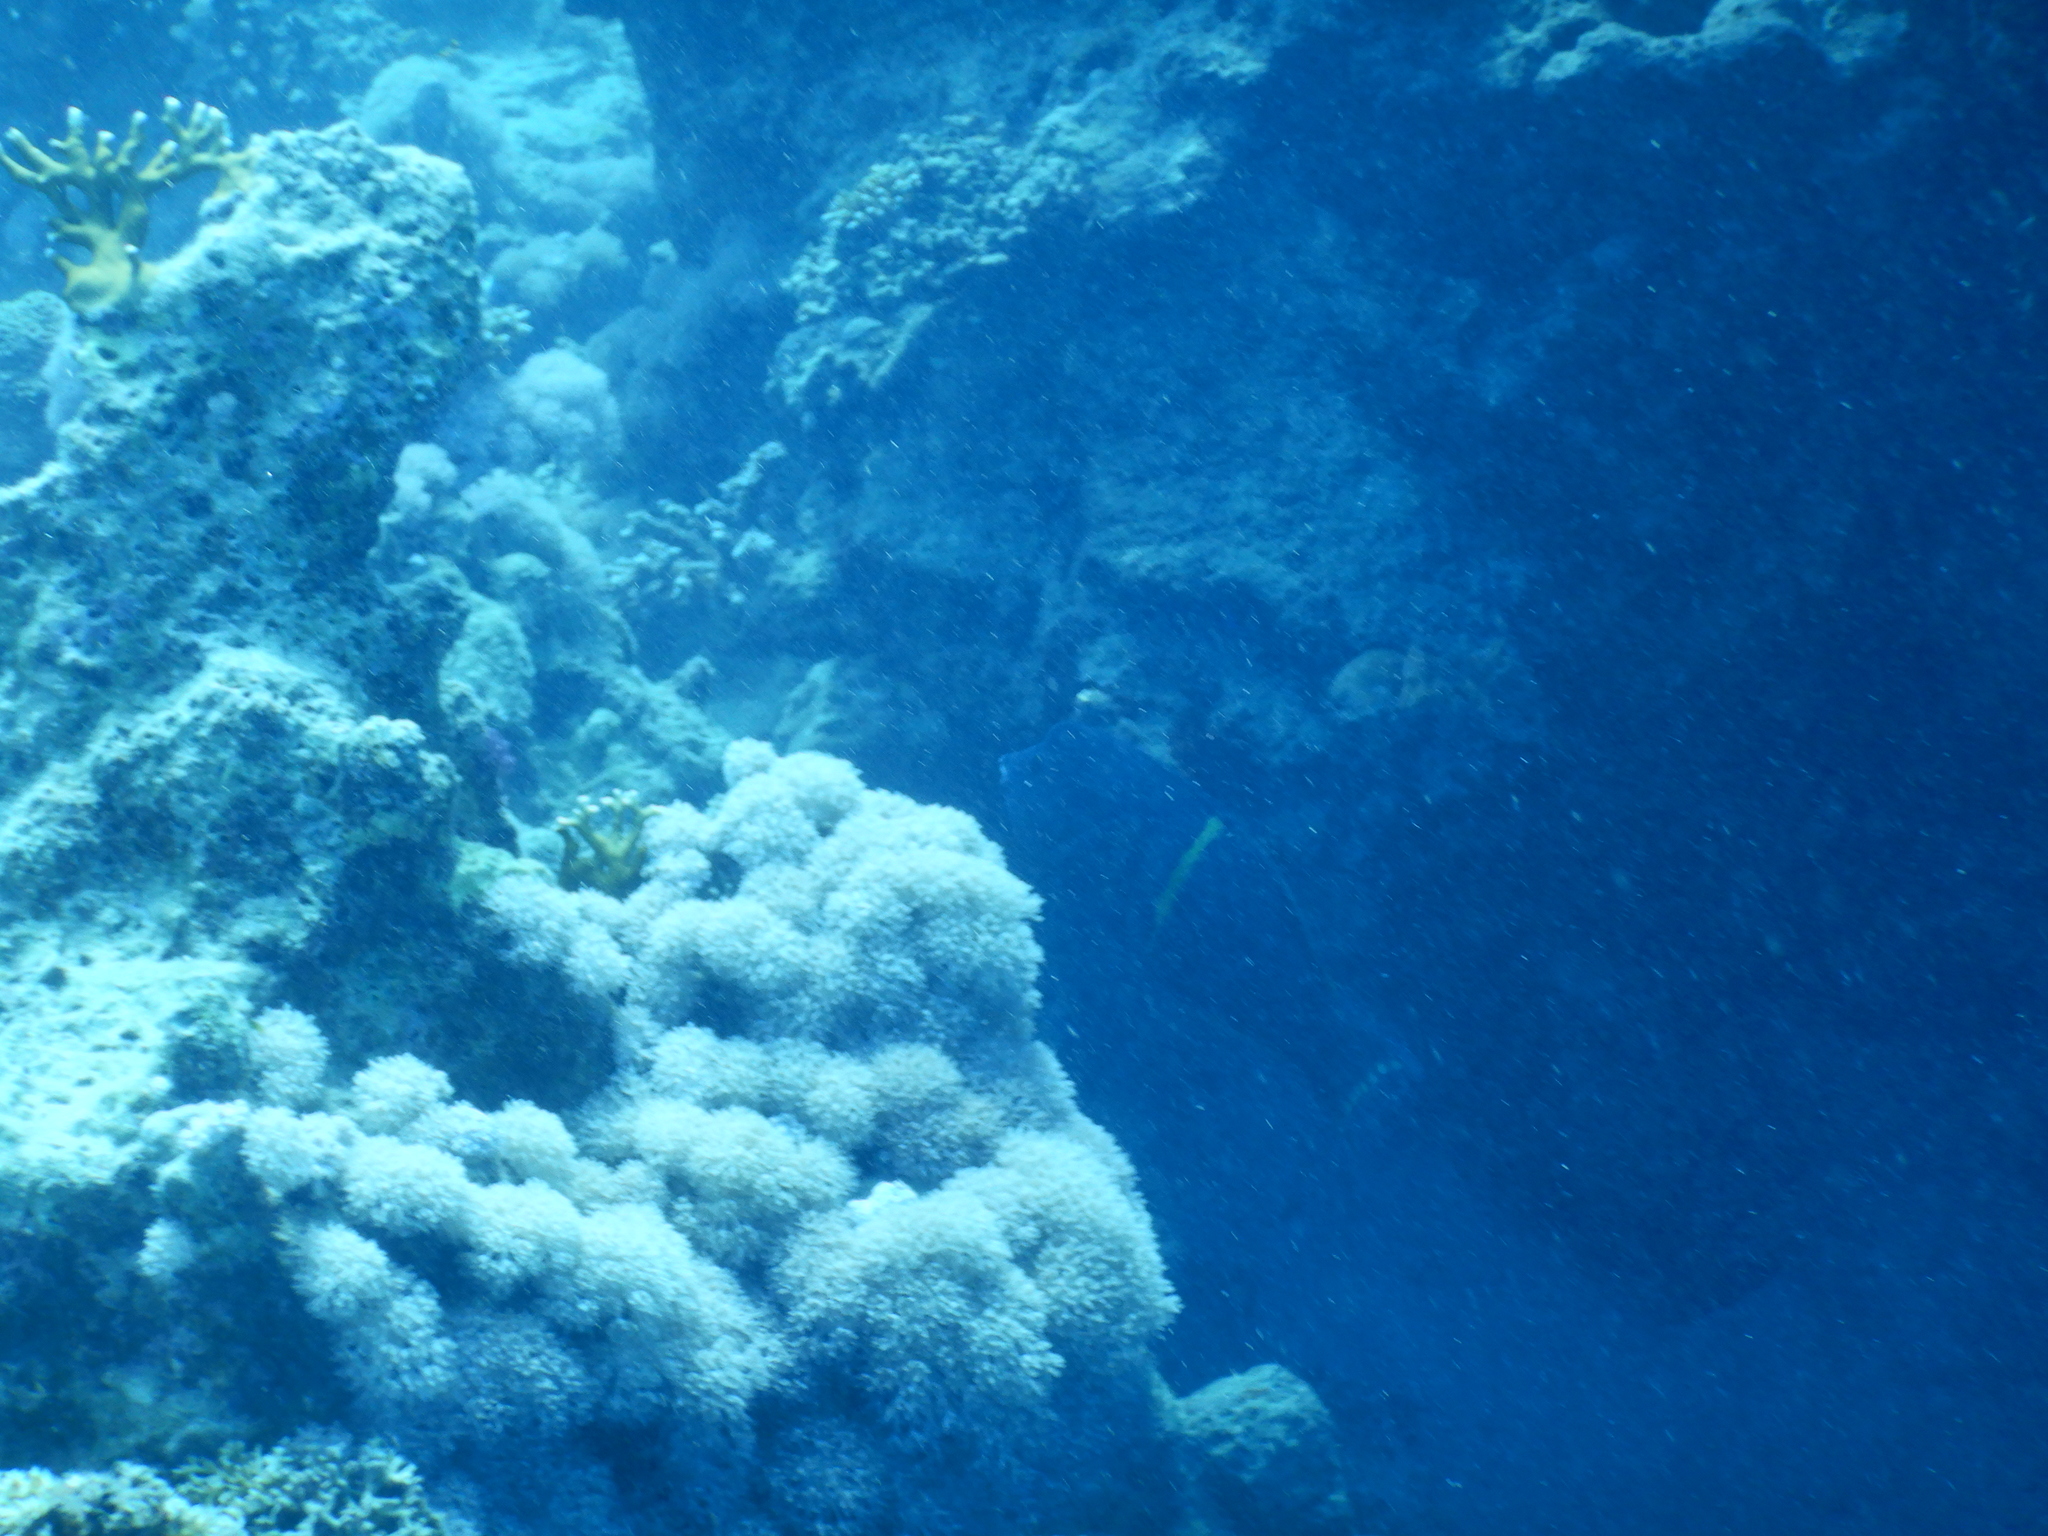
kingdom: Animalia
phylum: Chordata
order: Perciformes
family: Labridae
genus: Coris
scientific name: Coris aygula
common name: Clown coris
